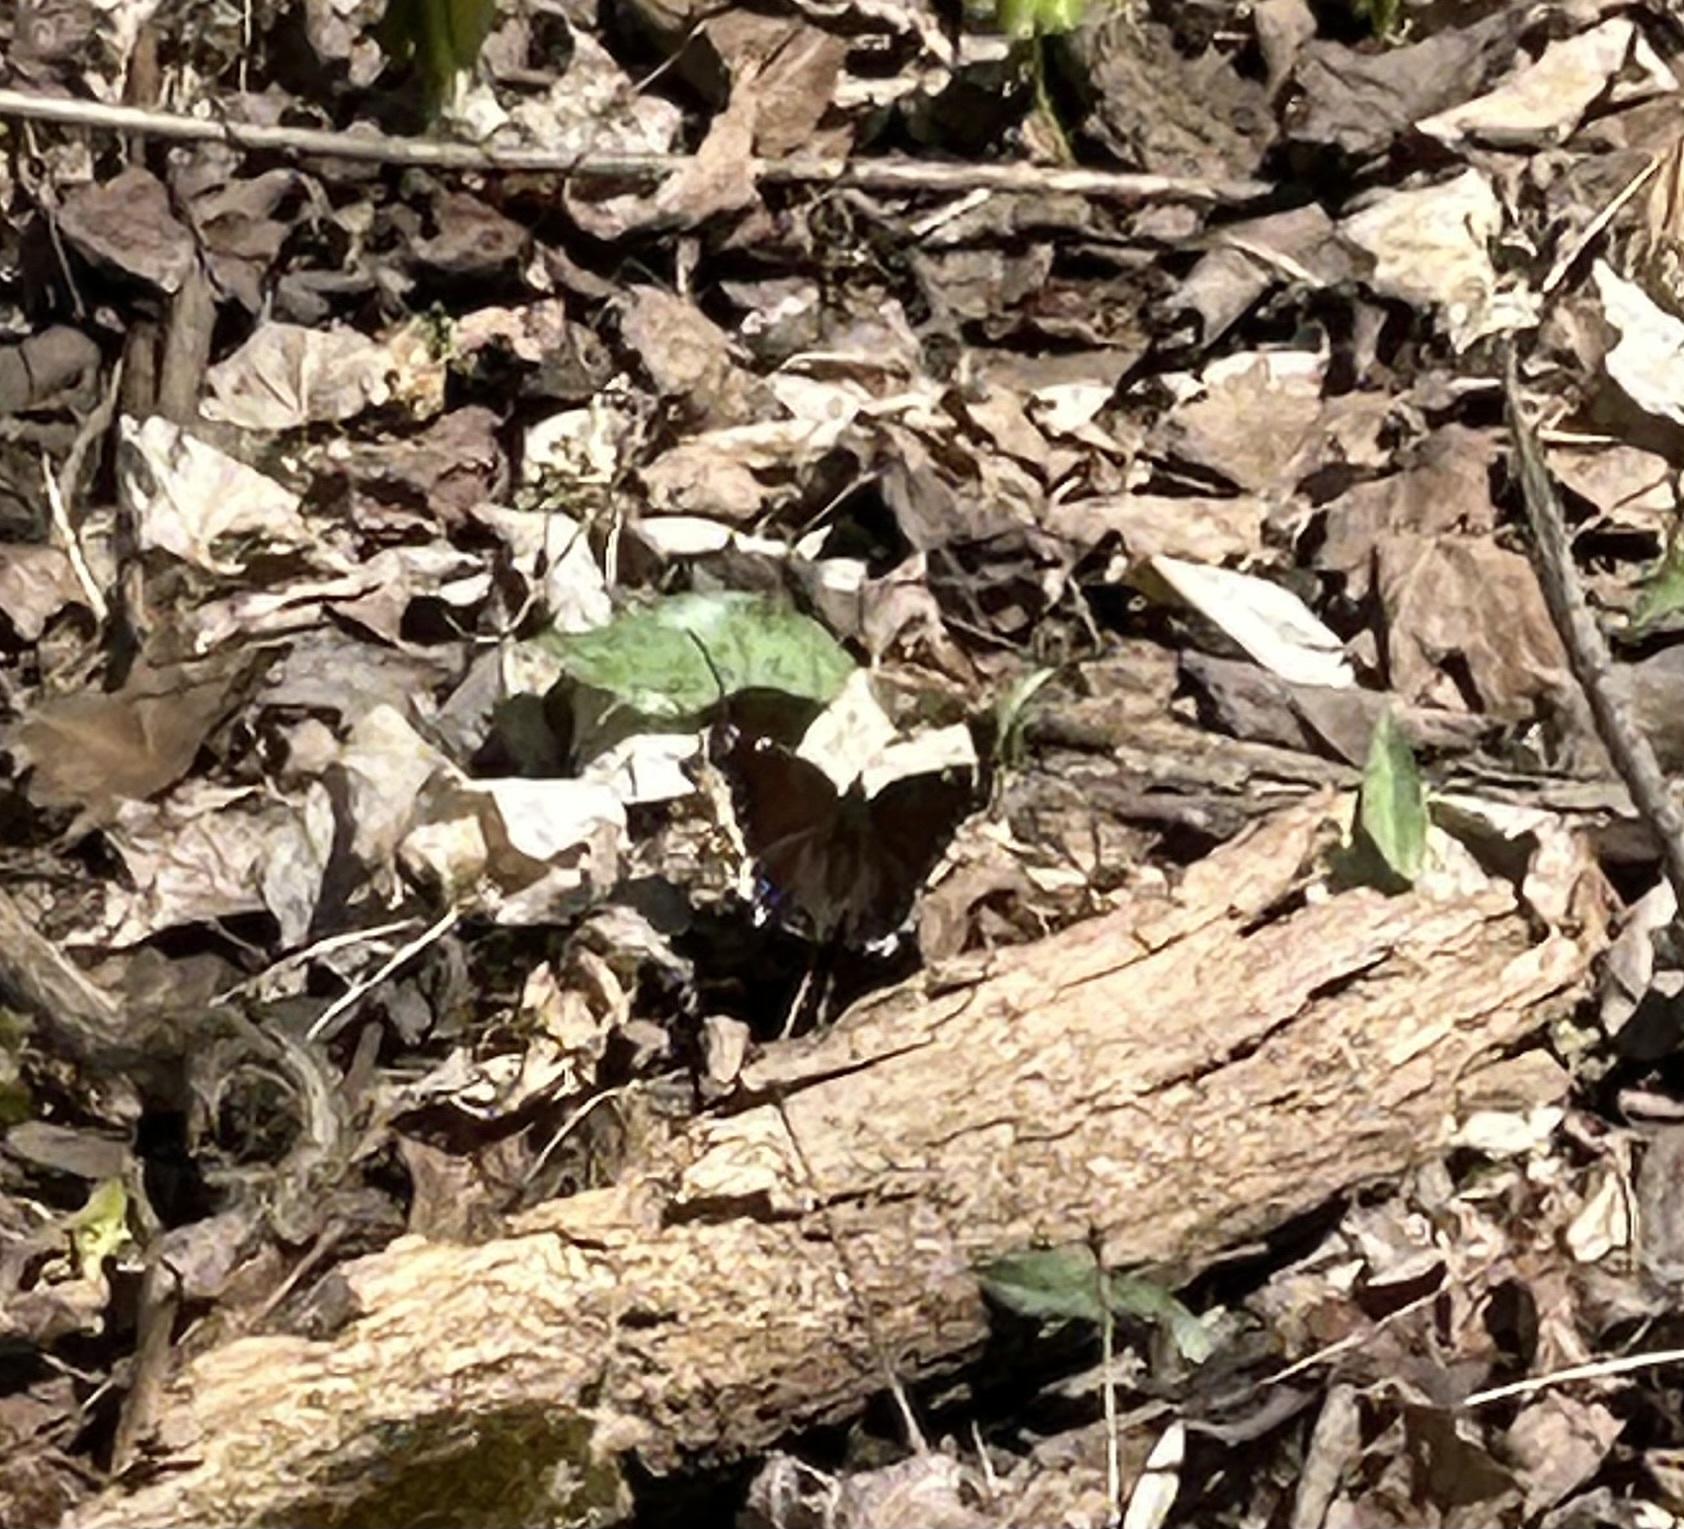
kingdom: Animalia
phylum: Arthropoda
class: Insecta
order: Lepidoptera
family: Nymphalidae
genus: Nymphalis
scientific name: Nymphalis antiopa
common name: Camberwell beauty
